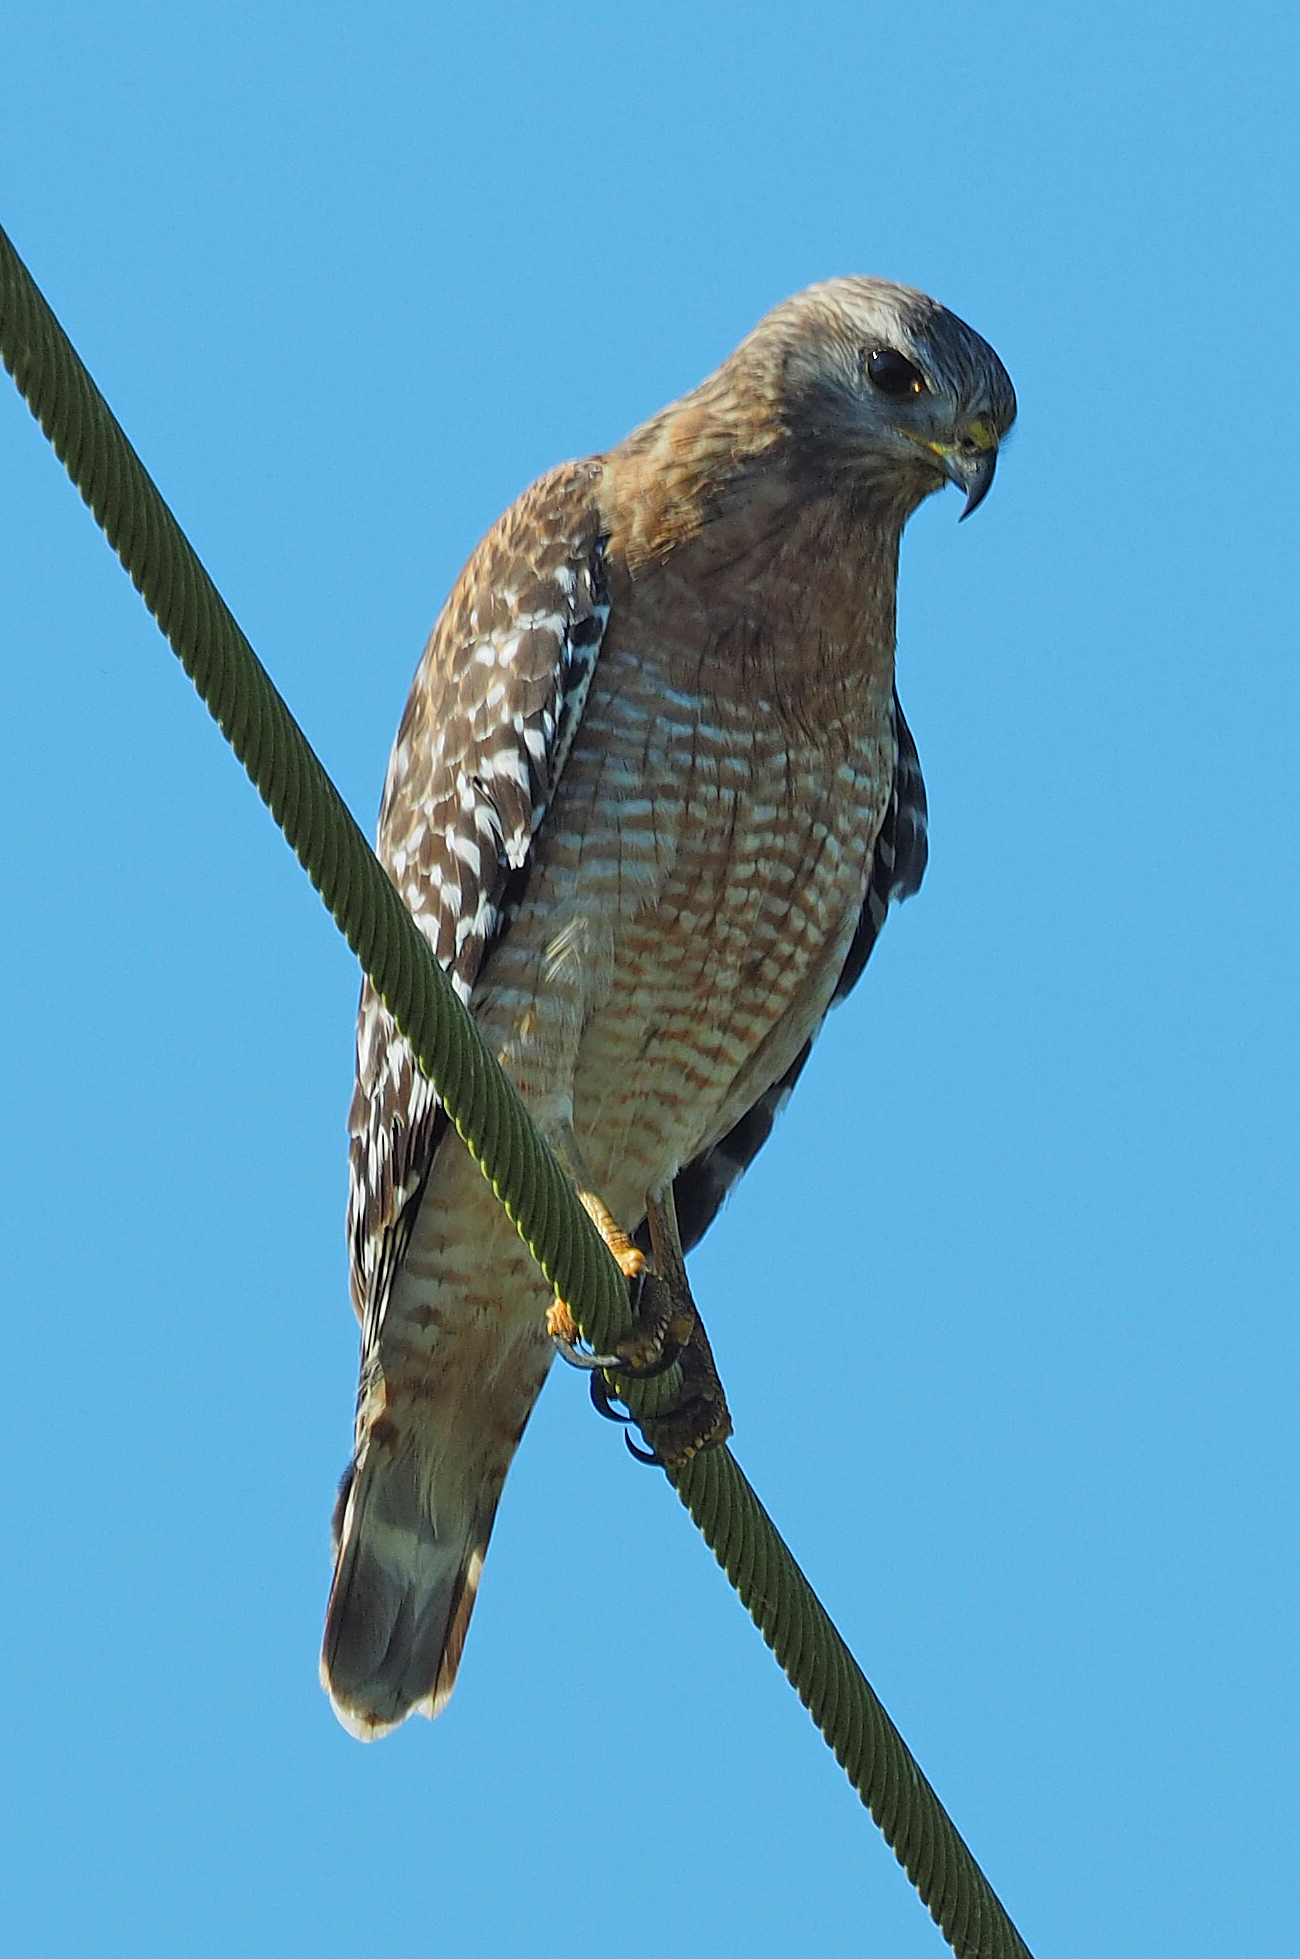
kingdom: Animalia
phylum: Chordata
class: Aves
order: Accipitriformes
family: Accipitridae
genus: Buteo
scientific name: Buteo lineatus
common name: Red-shouldered hawk
